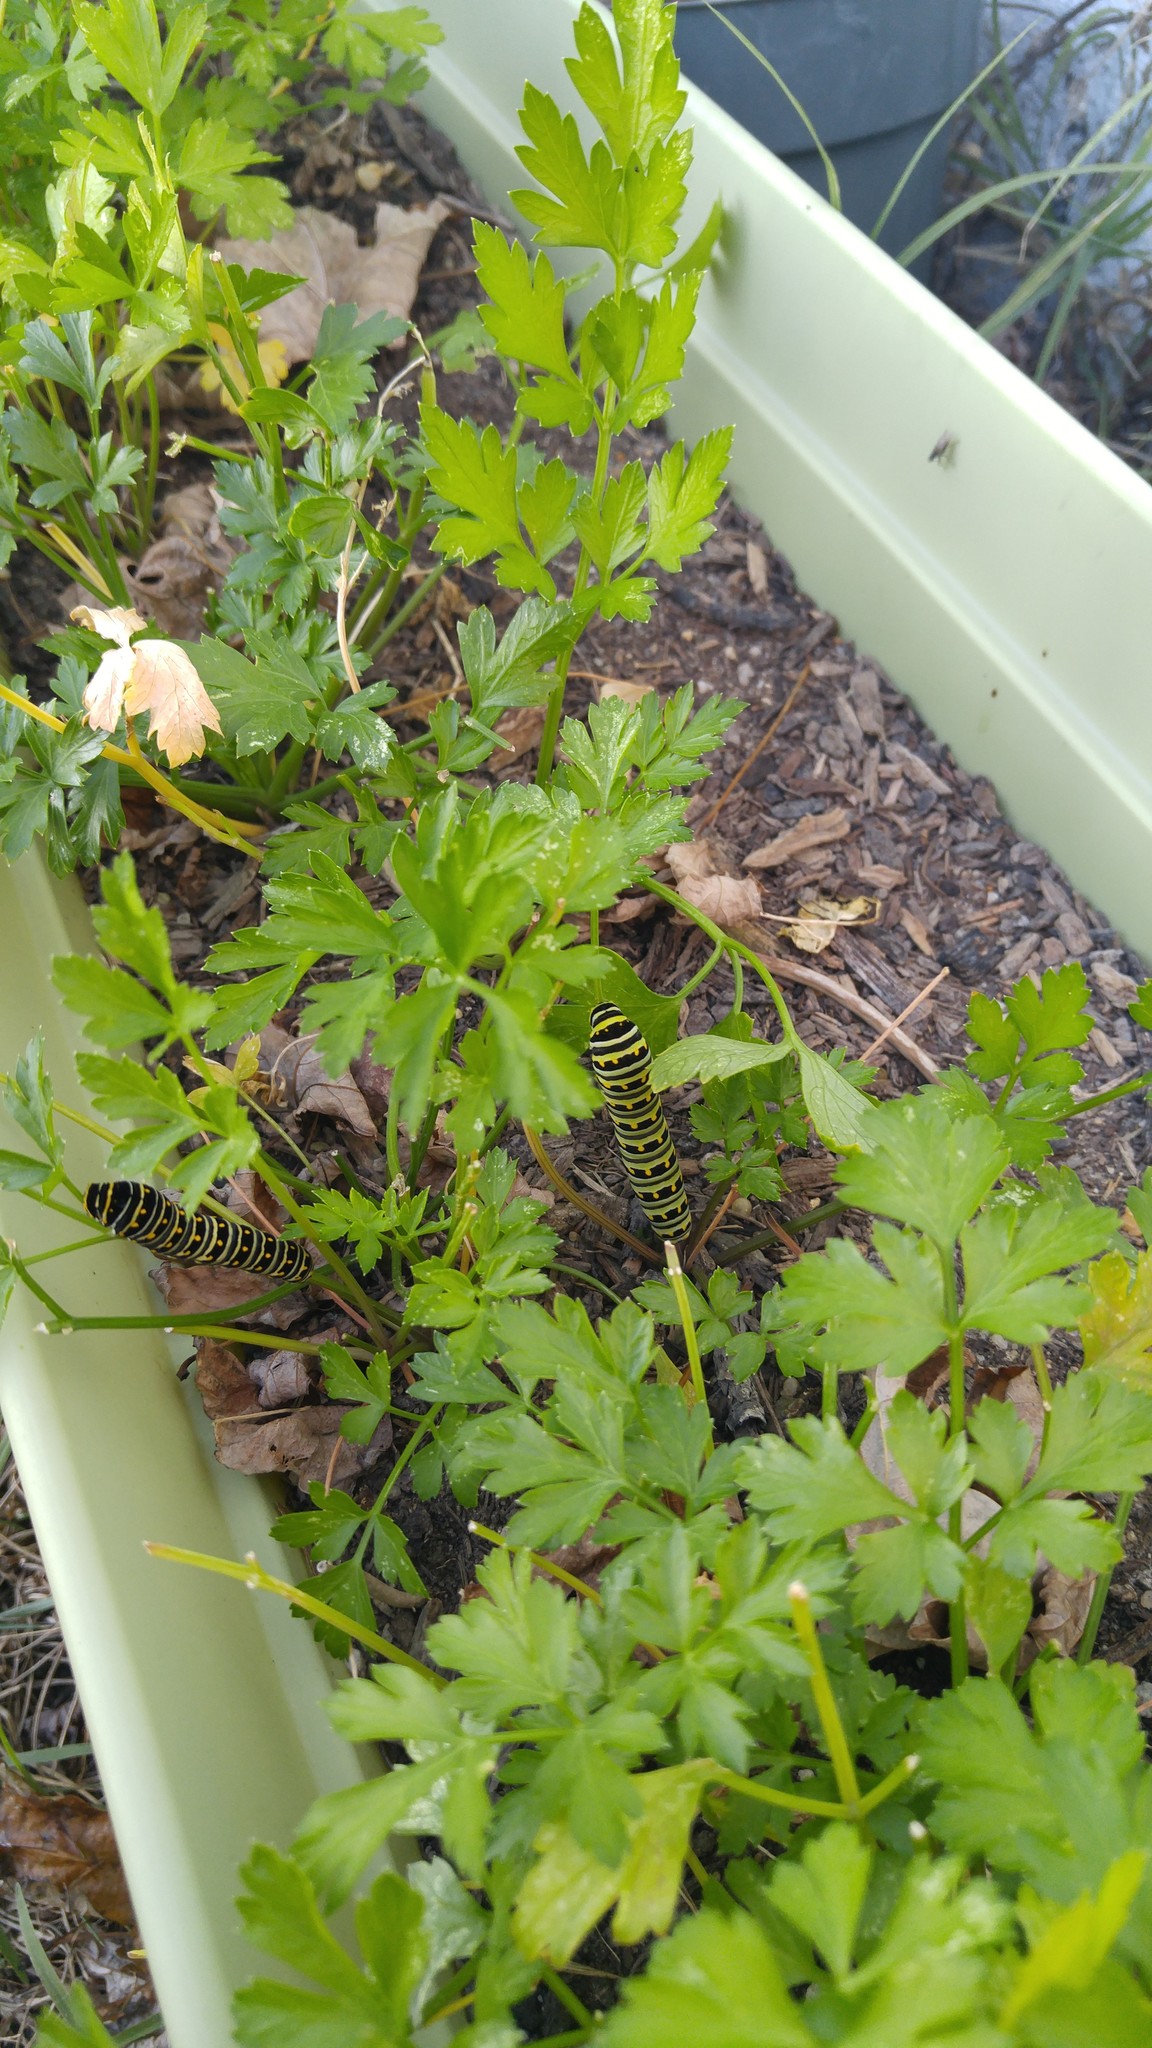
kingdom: Animalia
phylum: Arthropoda
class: Insecta
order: Lepidoptera
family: Papilionidae
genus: Papilio
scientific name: Papilio polyxenes
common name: Black swallowtail
